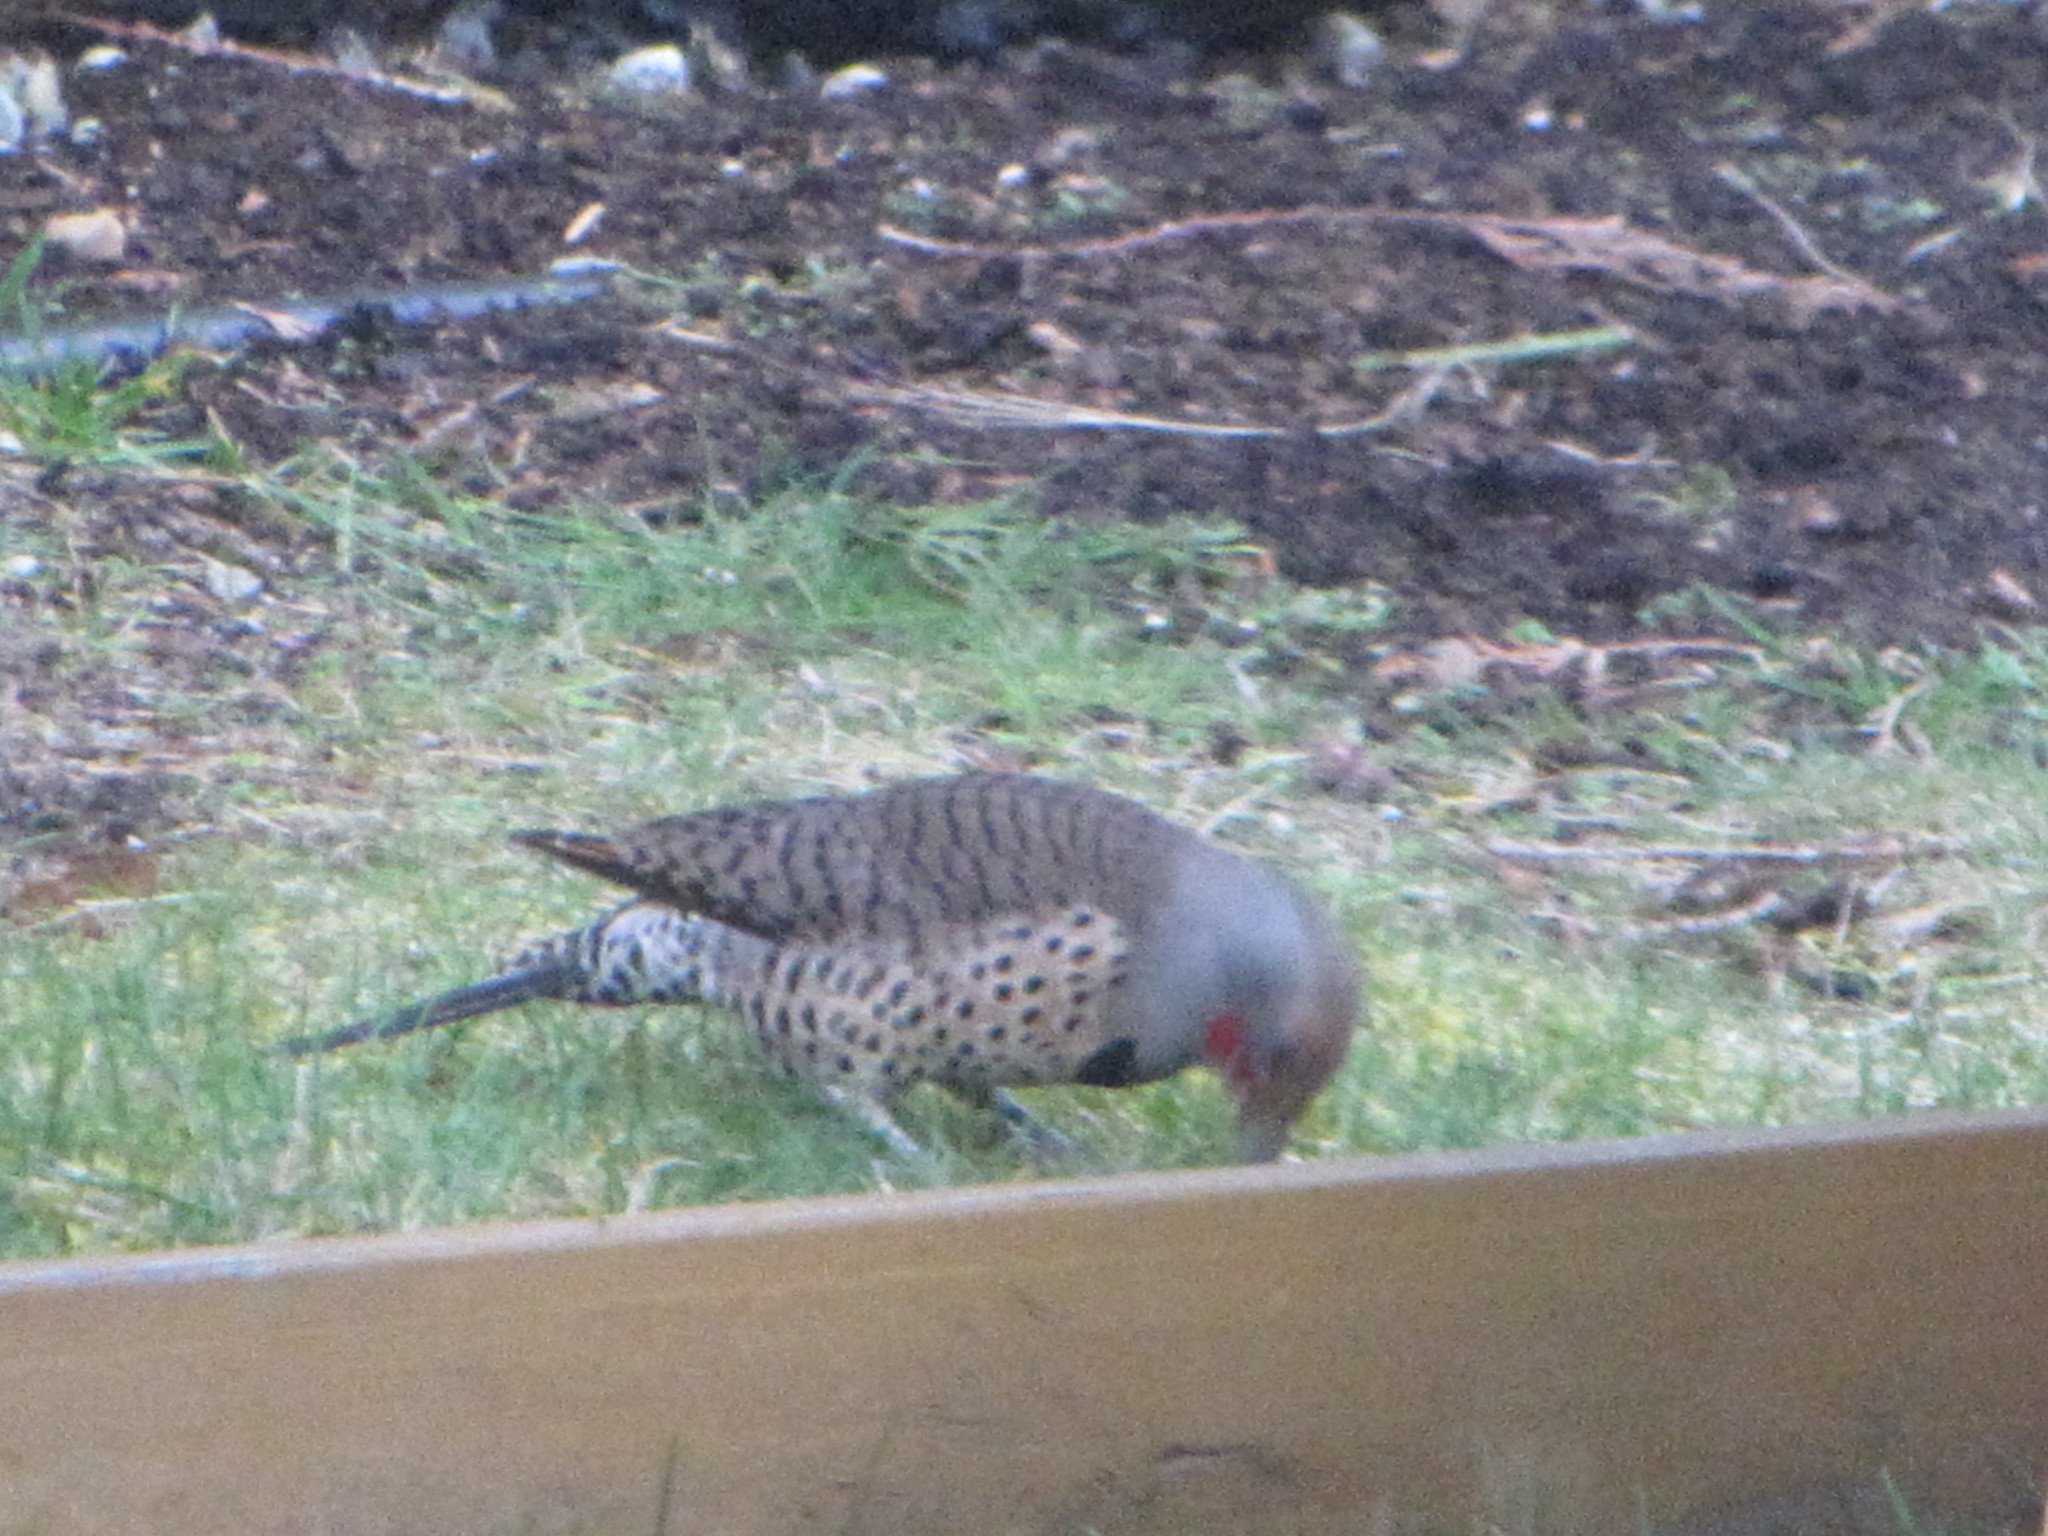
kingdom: Animalia
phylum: Chordata
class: Aves
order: Piciformes
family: Picidae
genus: Colaptes
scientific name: Colaptes auratus
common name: Northern flicker
